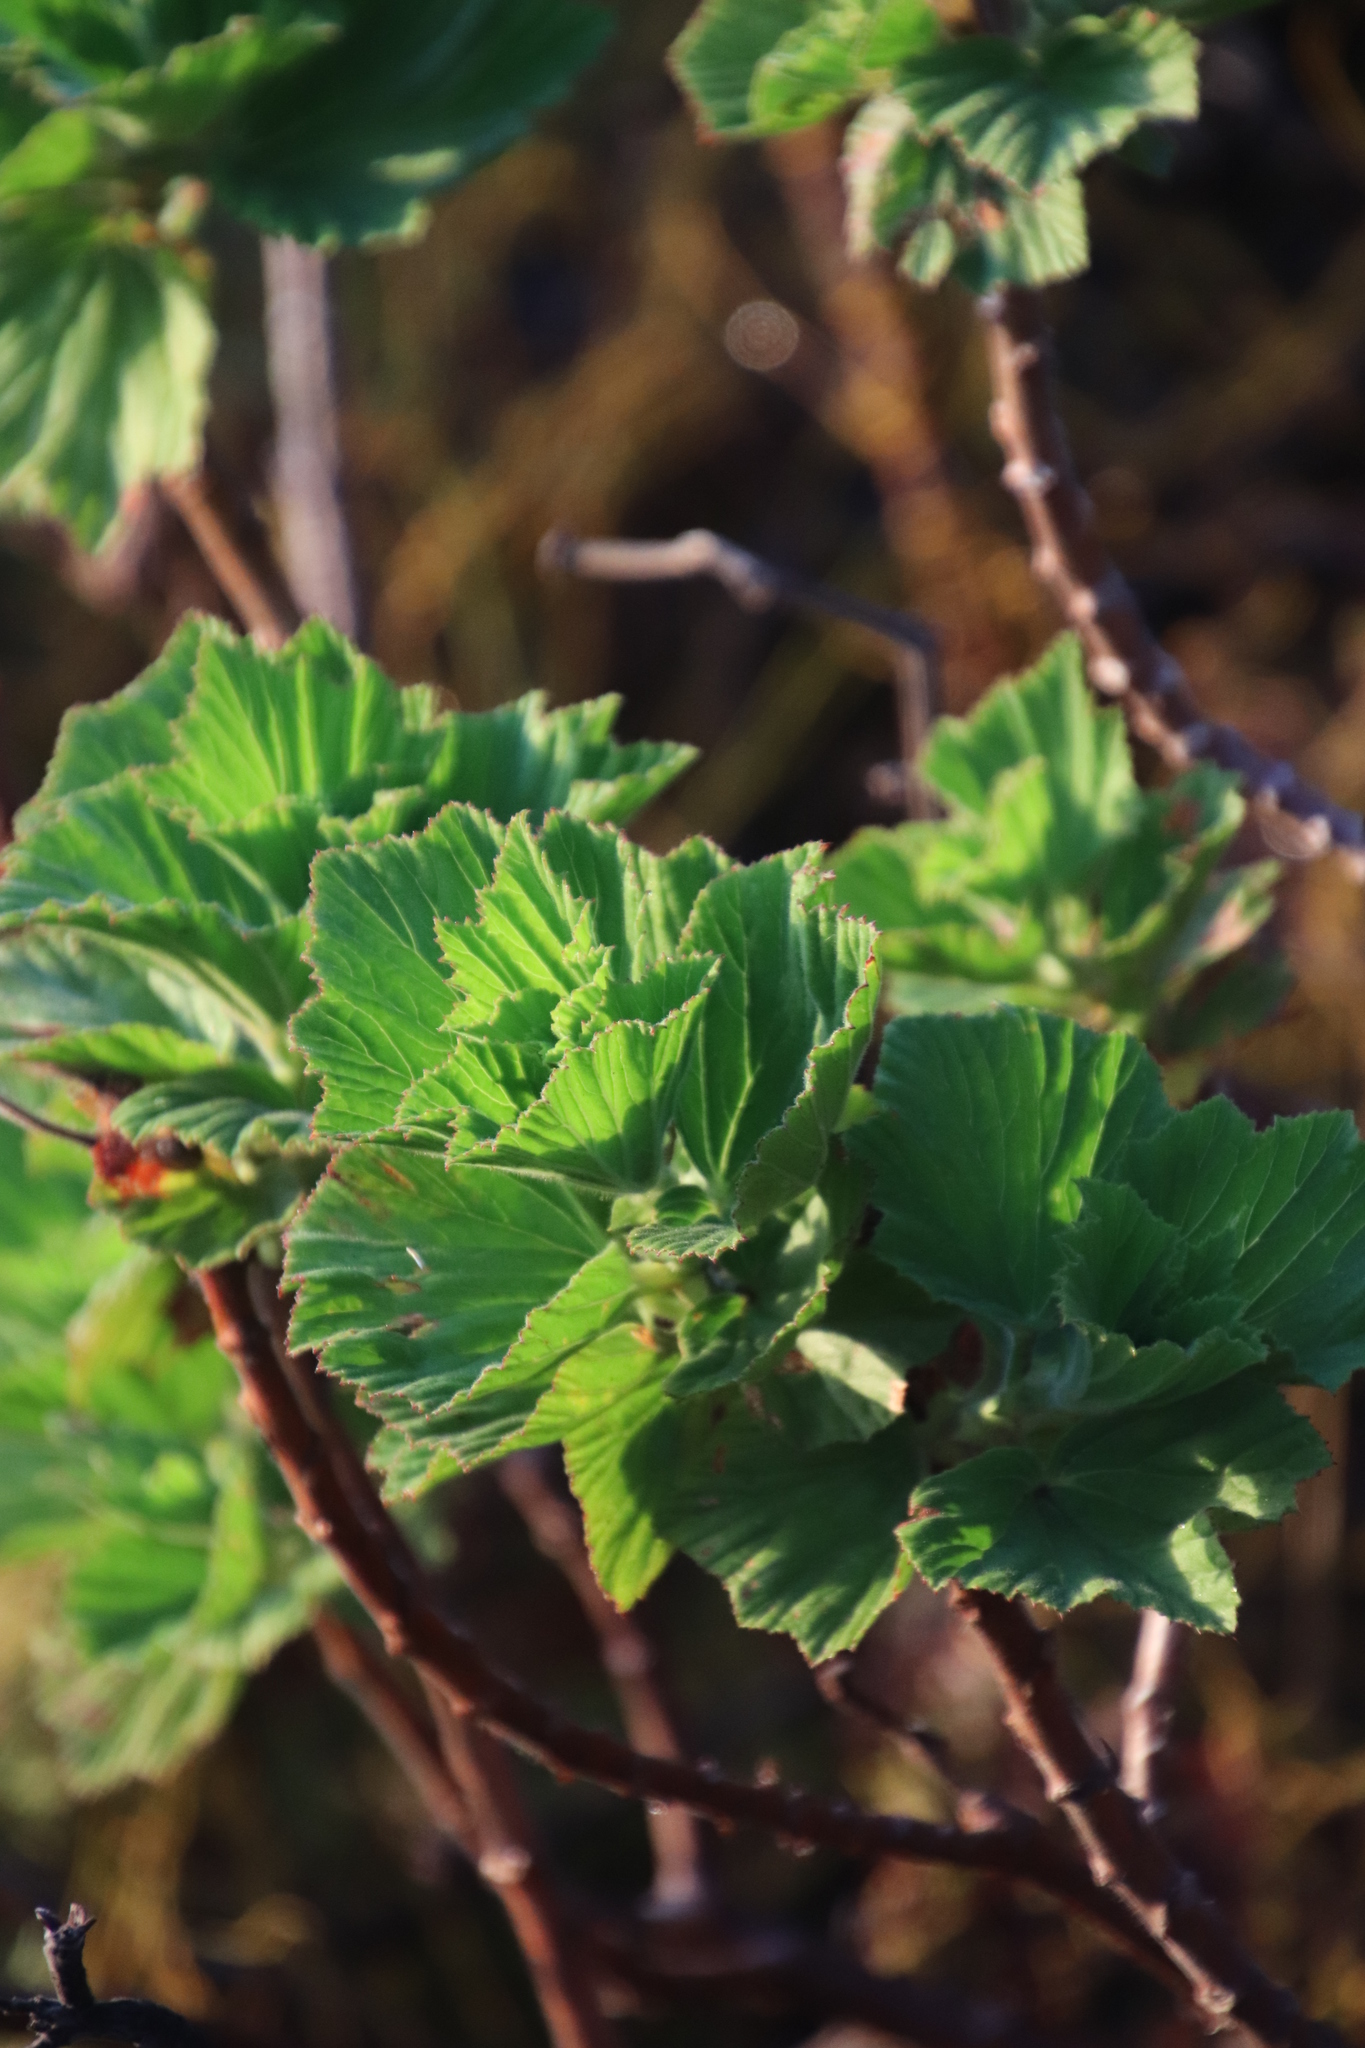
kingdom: Plantae
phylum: Tracheophyta
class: Magnoliopsida
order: Geraniales
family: Geraniaceae
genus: Pelargonium
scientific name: Pelargonium cucullatum
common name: Tree pelargonium
